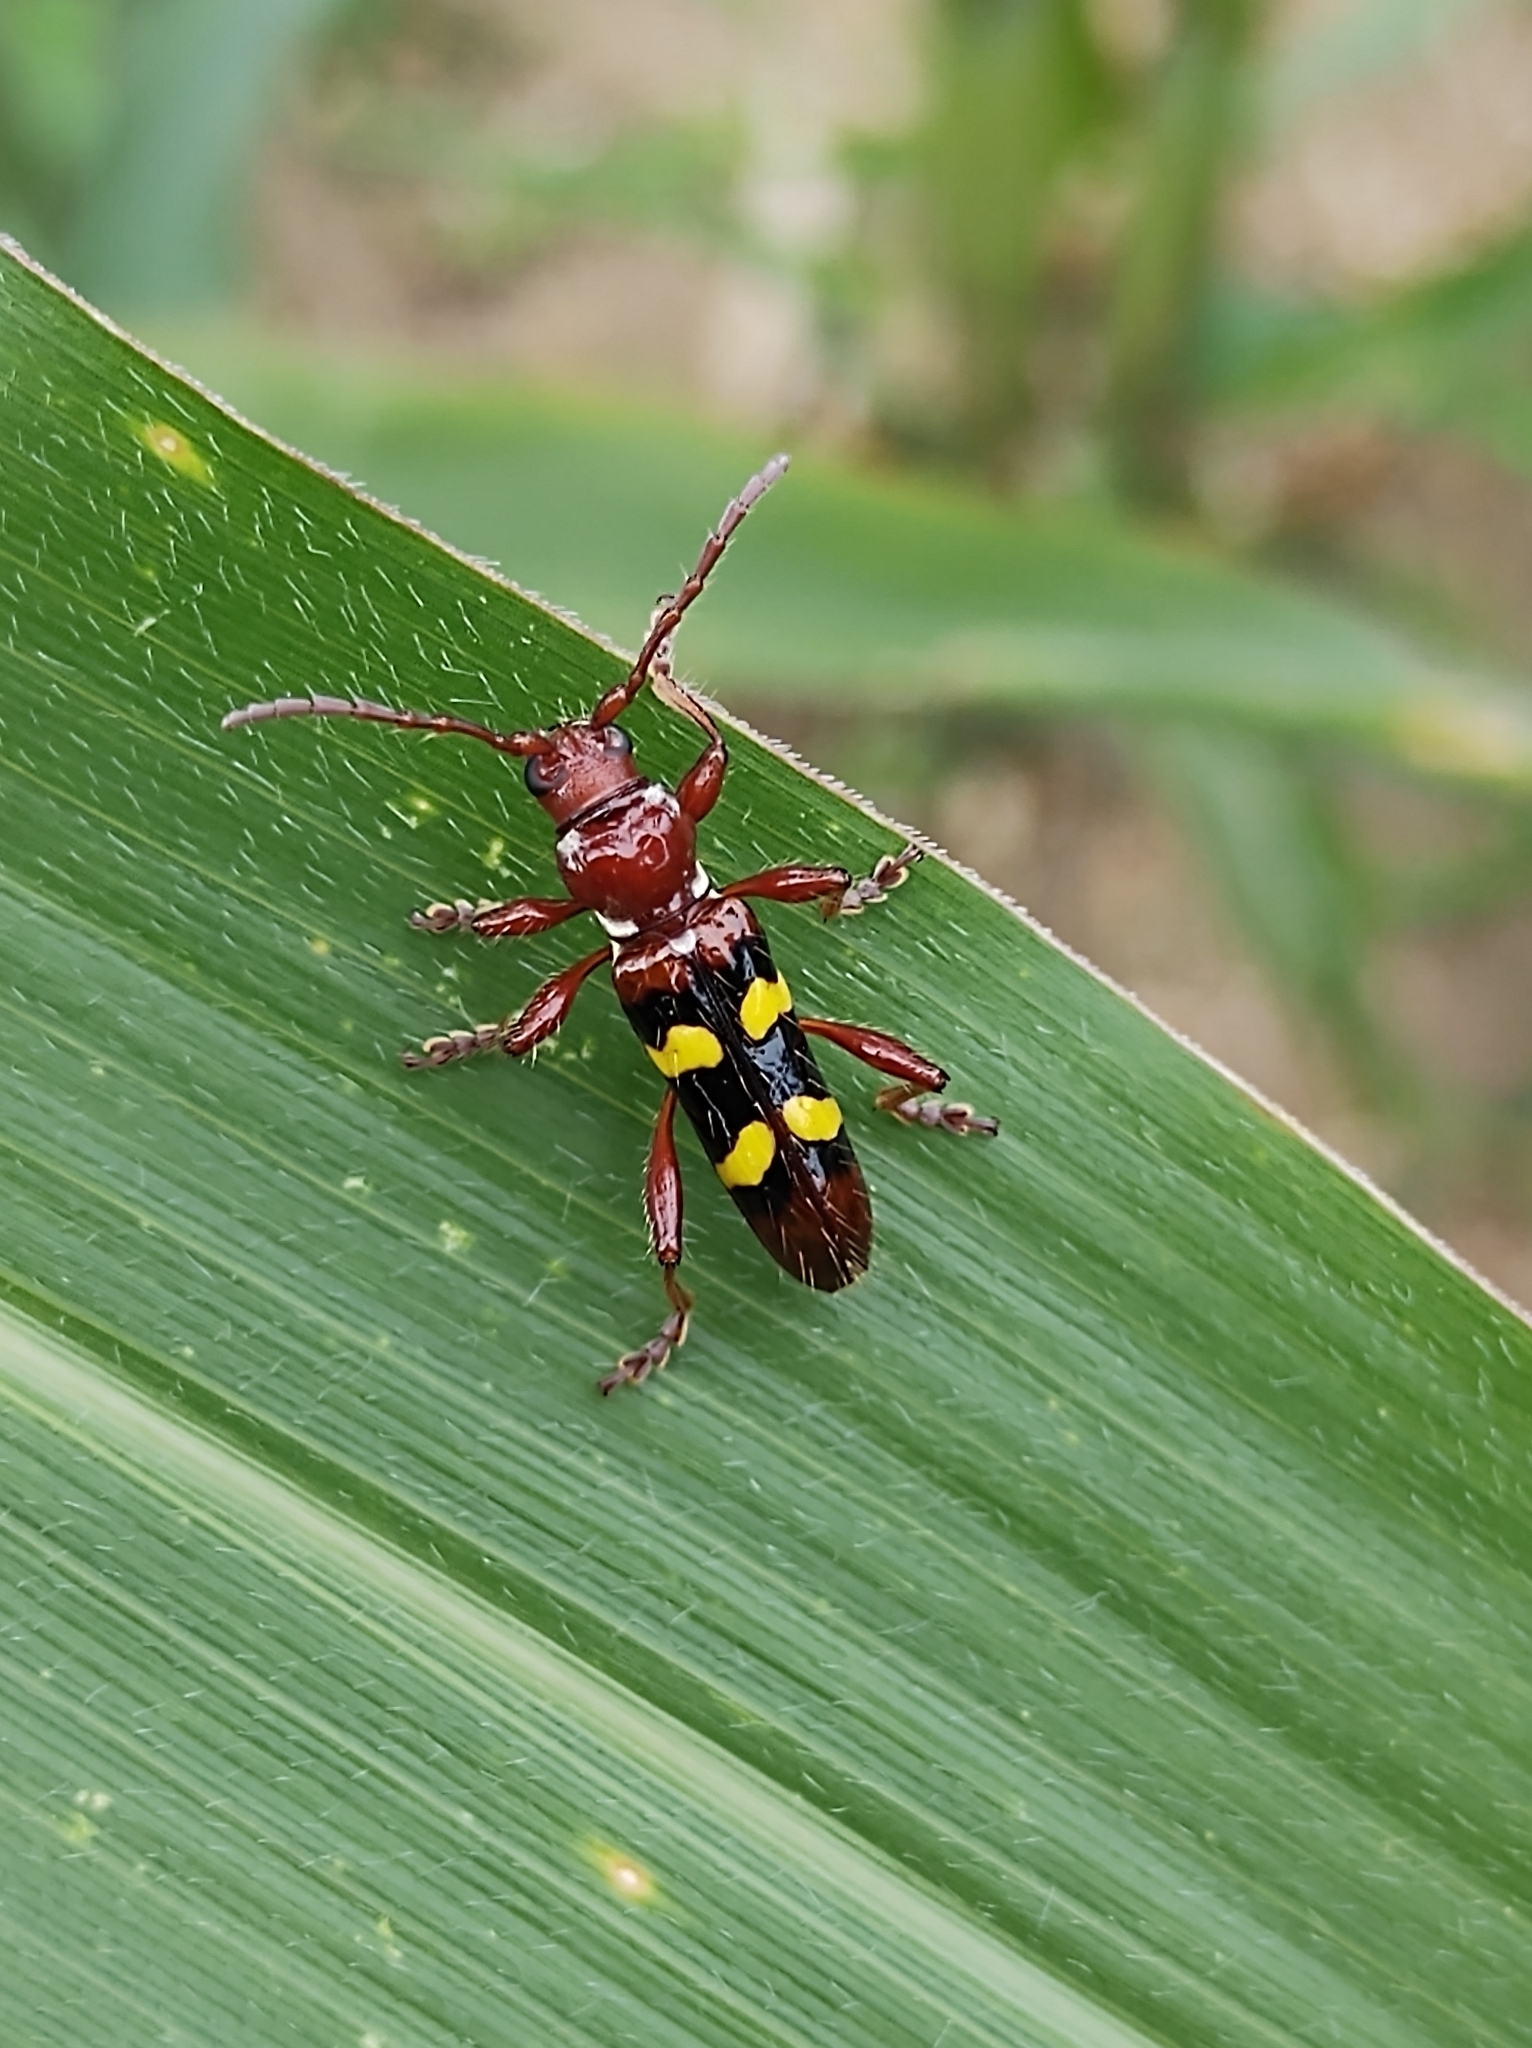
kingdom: Animalia
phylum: Arthropoda
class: Insecta
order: Coleoptera
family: Cerambycidae
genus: Stenygra
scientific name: Stenygra histrio
